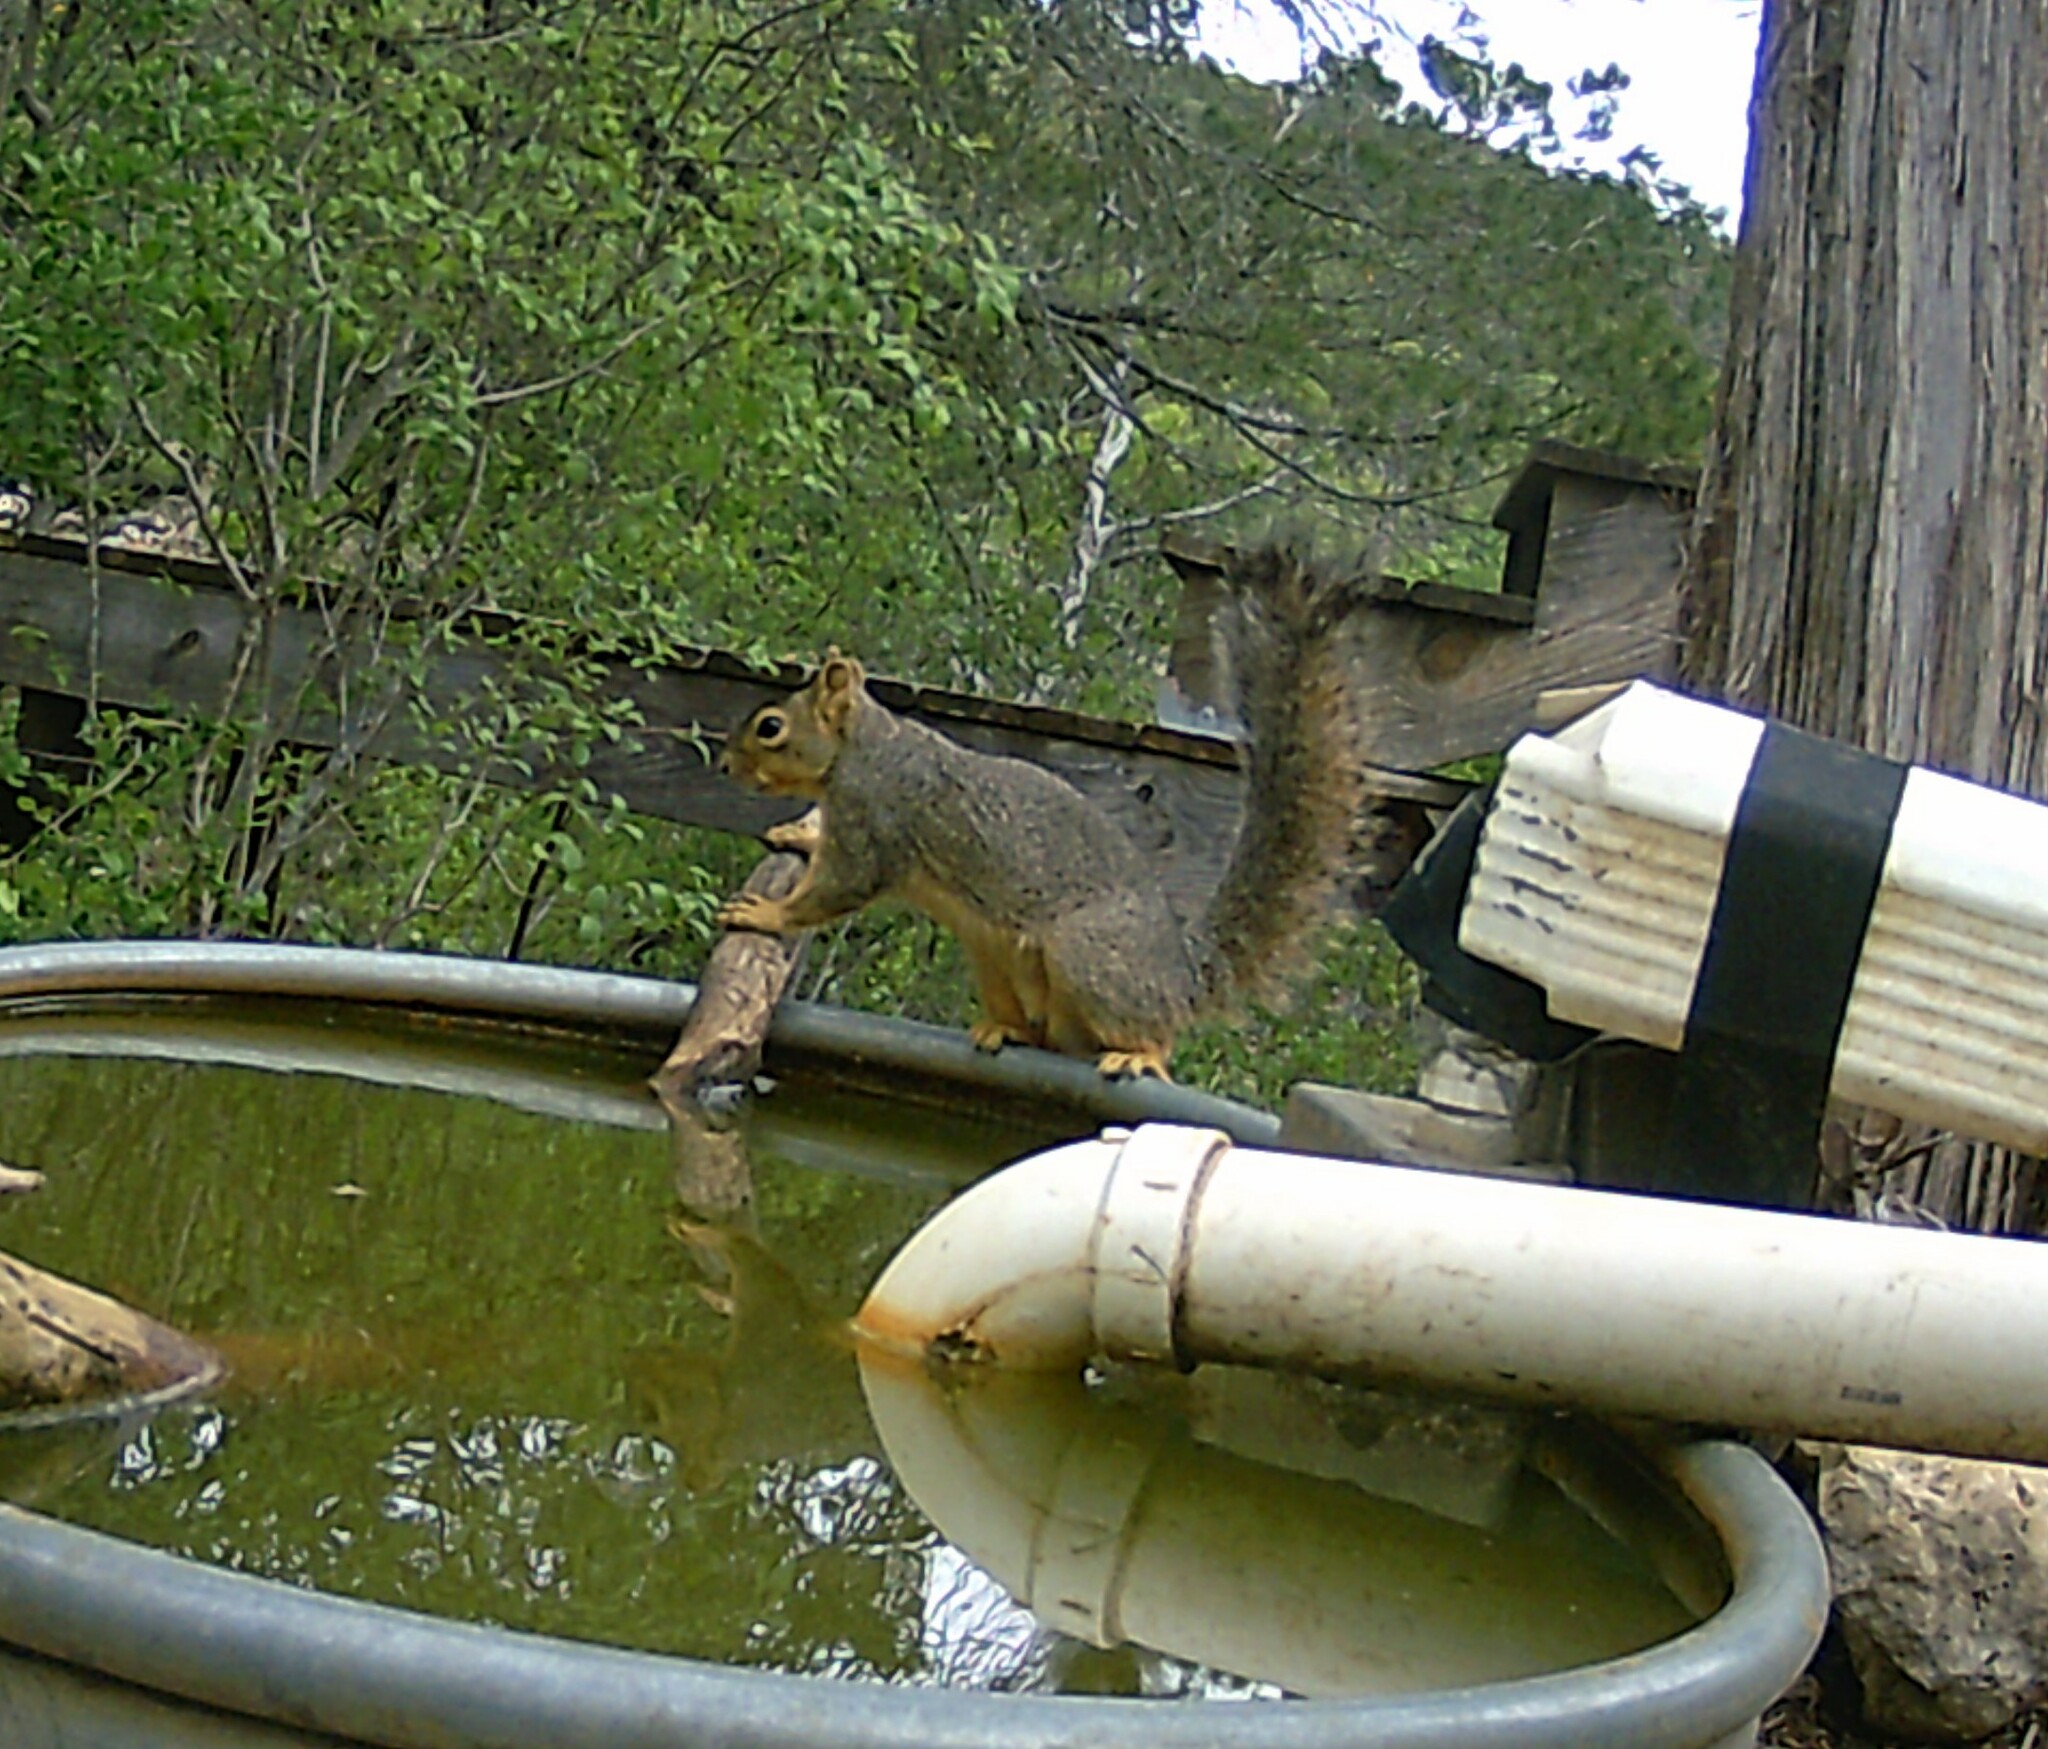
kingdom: Animalia
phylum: Chordata
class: Mammalia
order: Rodentia
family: Sciuridae
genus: Sciurus
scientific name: Sciurus niger
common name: Fox squirrel
